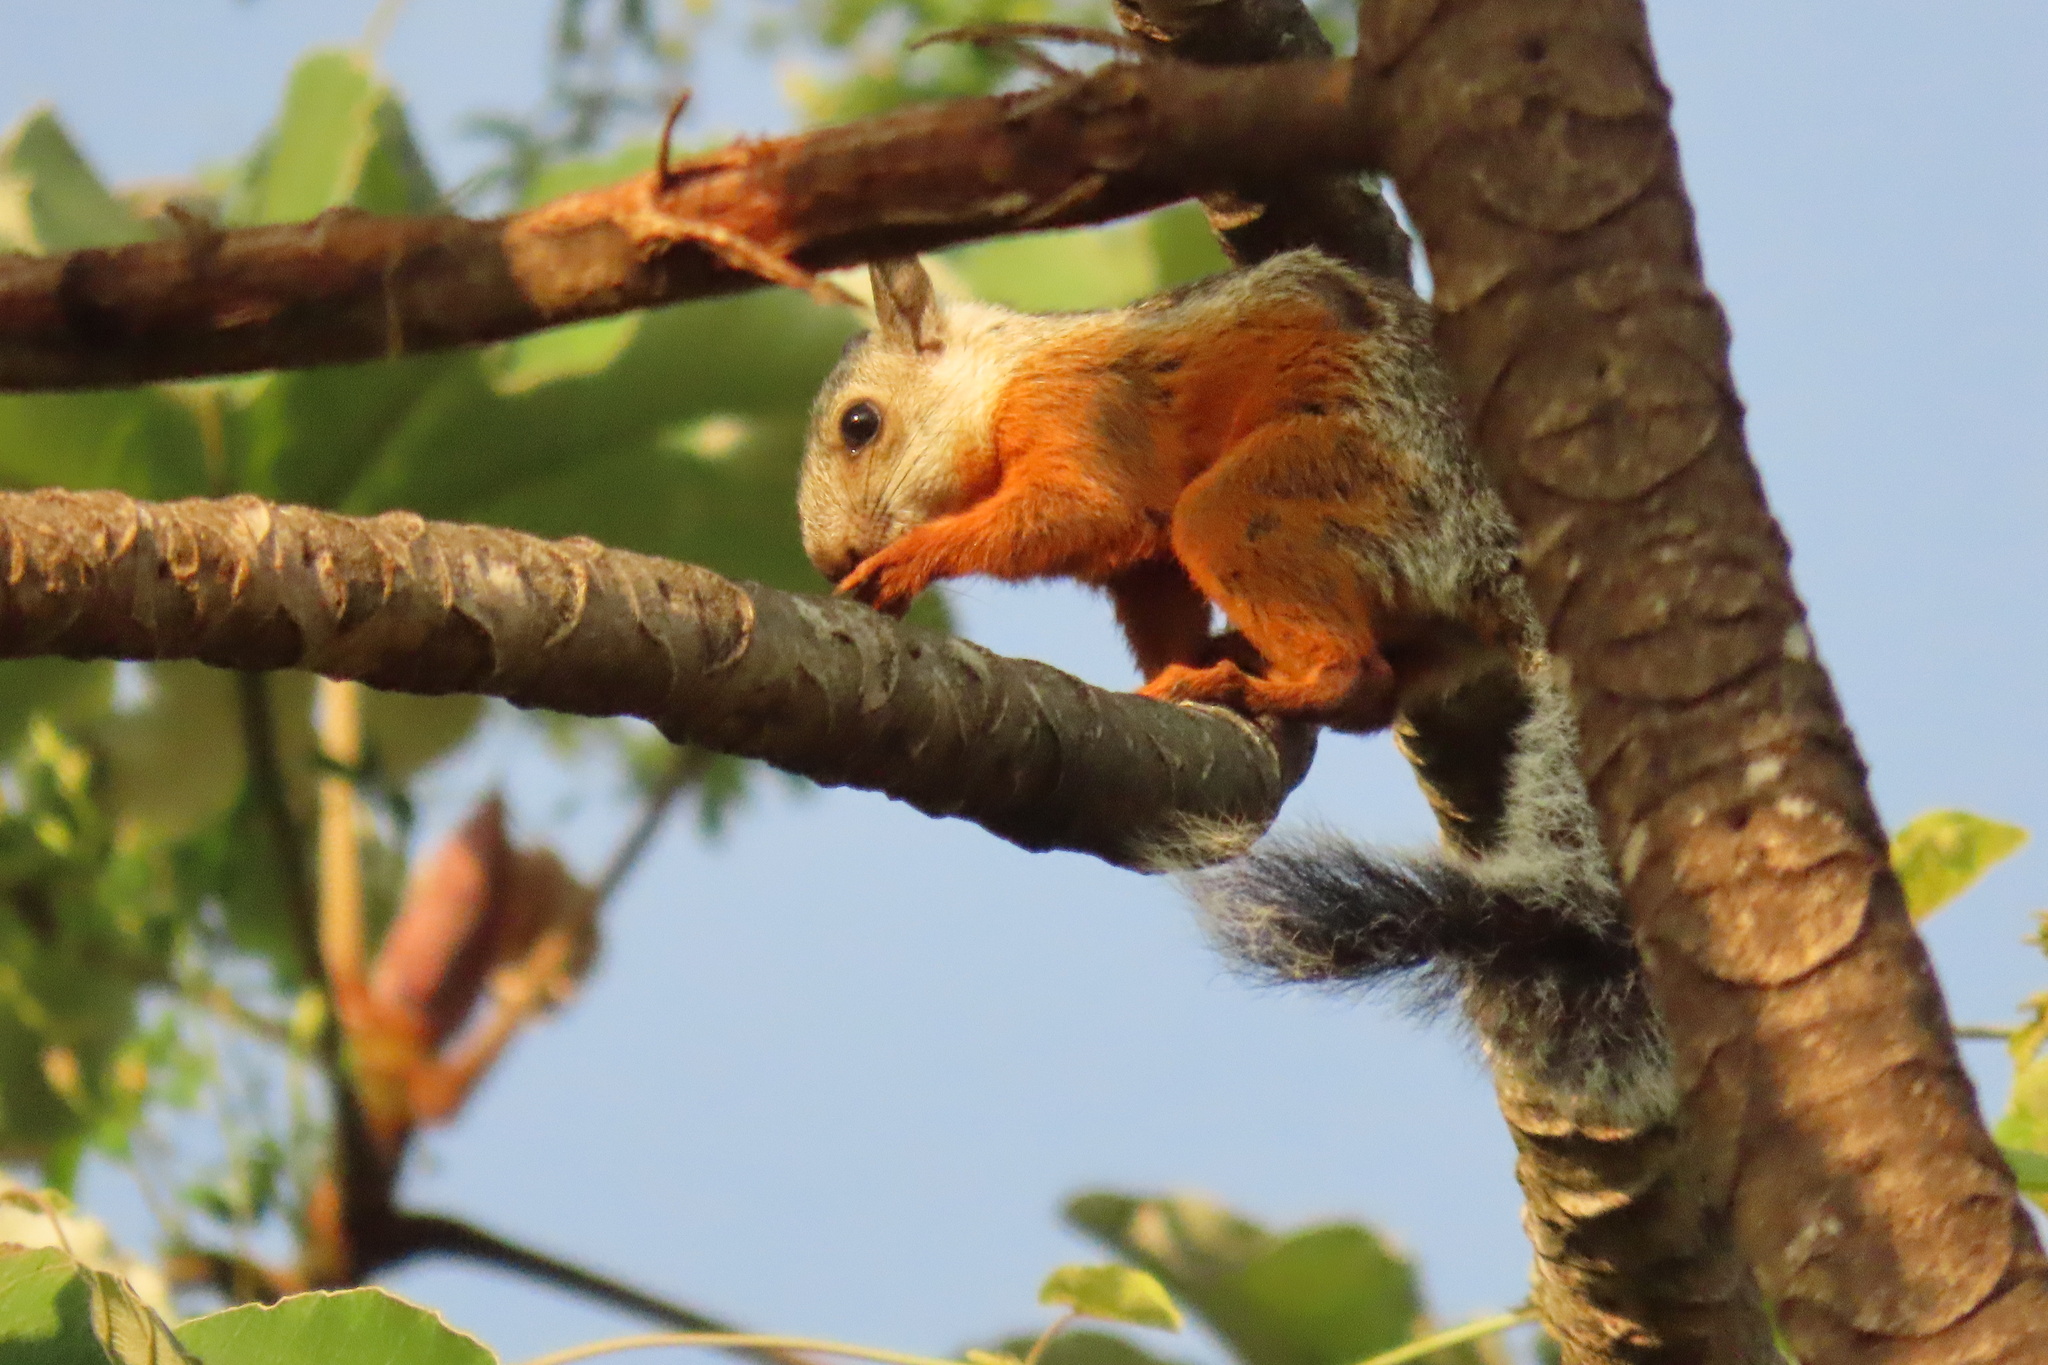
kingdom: Animalia
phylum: Chordata
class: Mammalia
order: Rodentia
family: Sciuridae
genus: Sciurus
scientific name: Sciurus variegatoides
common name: Variegated squirrel
